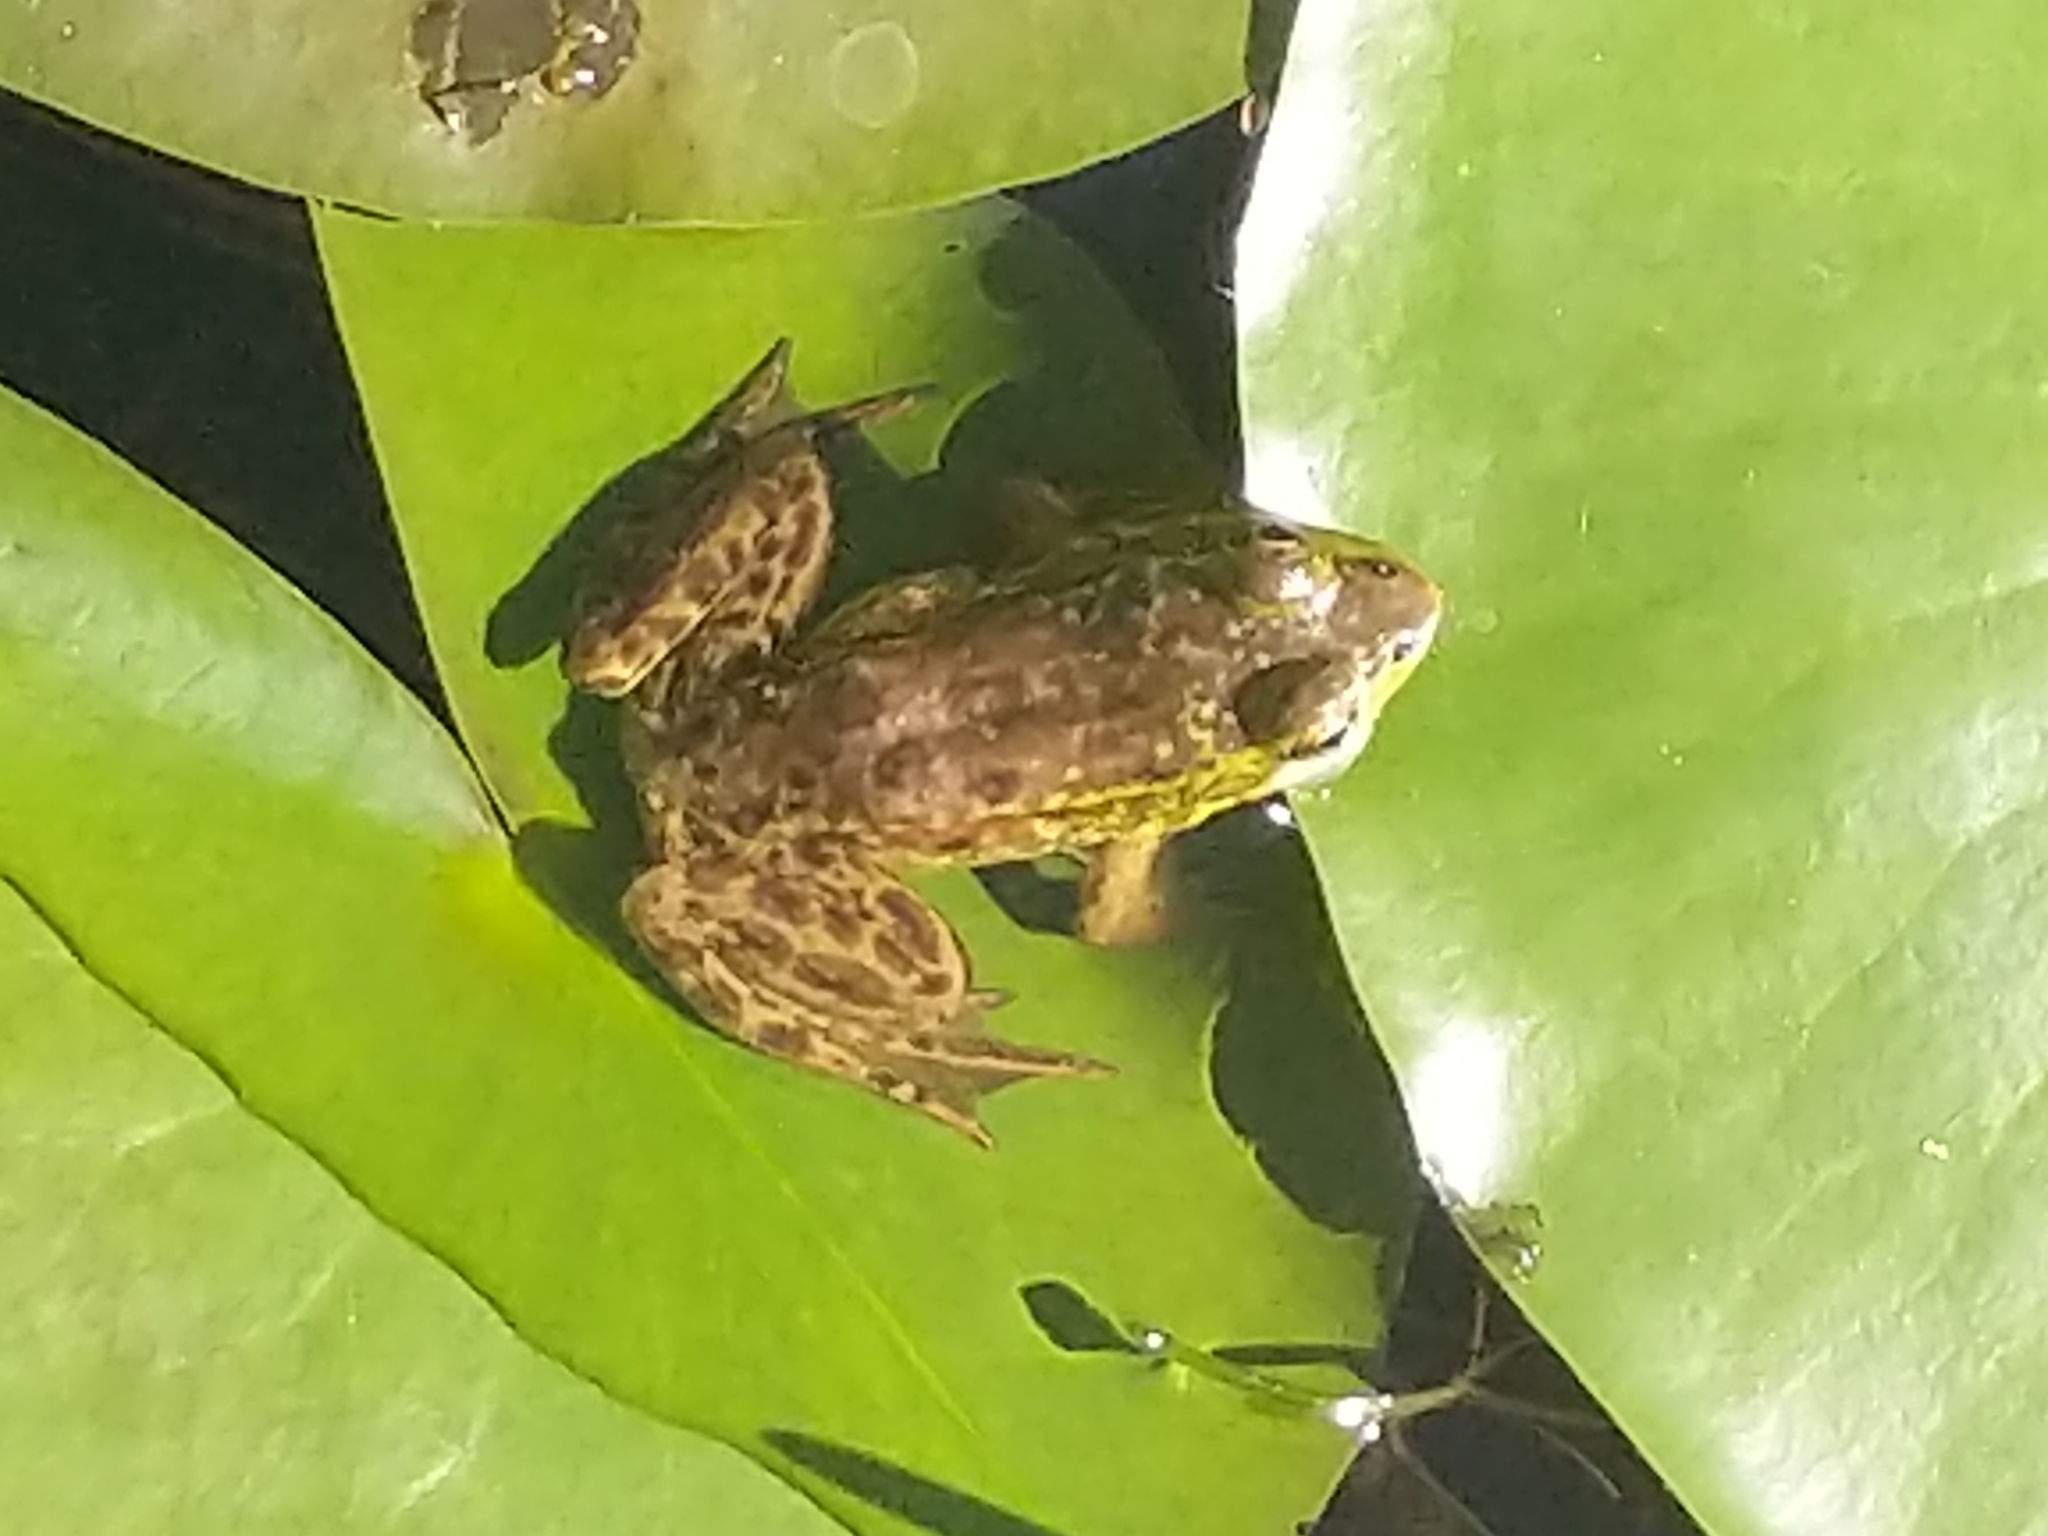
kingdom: Animalia
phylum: Chordata
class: Amphibia
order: Anura
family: Ranidae
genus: Lithobates
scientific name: Lithobates septentrionalis
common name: Mink frog
